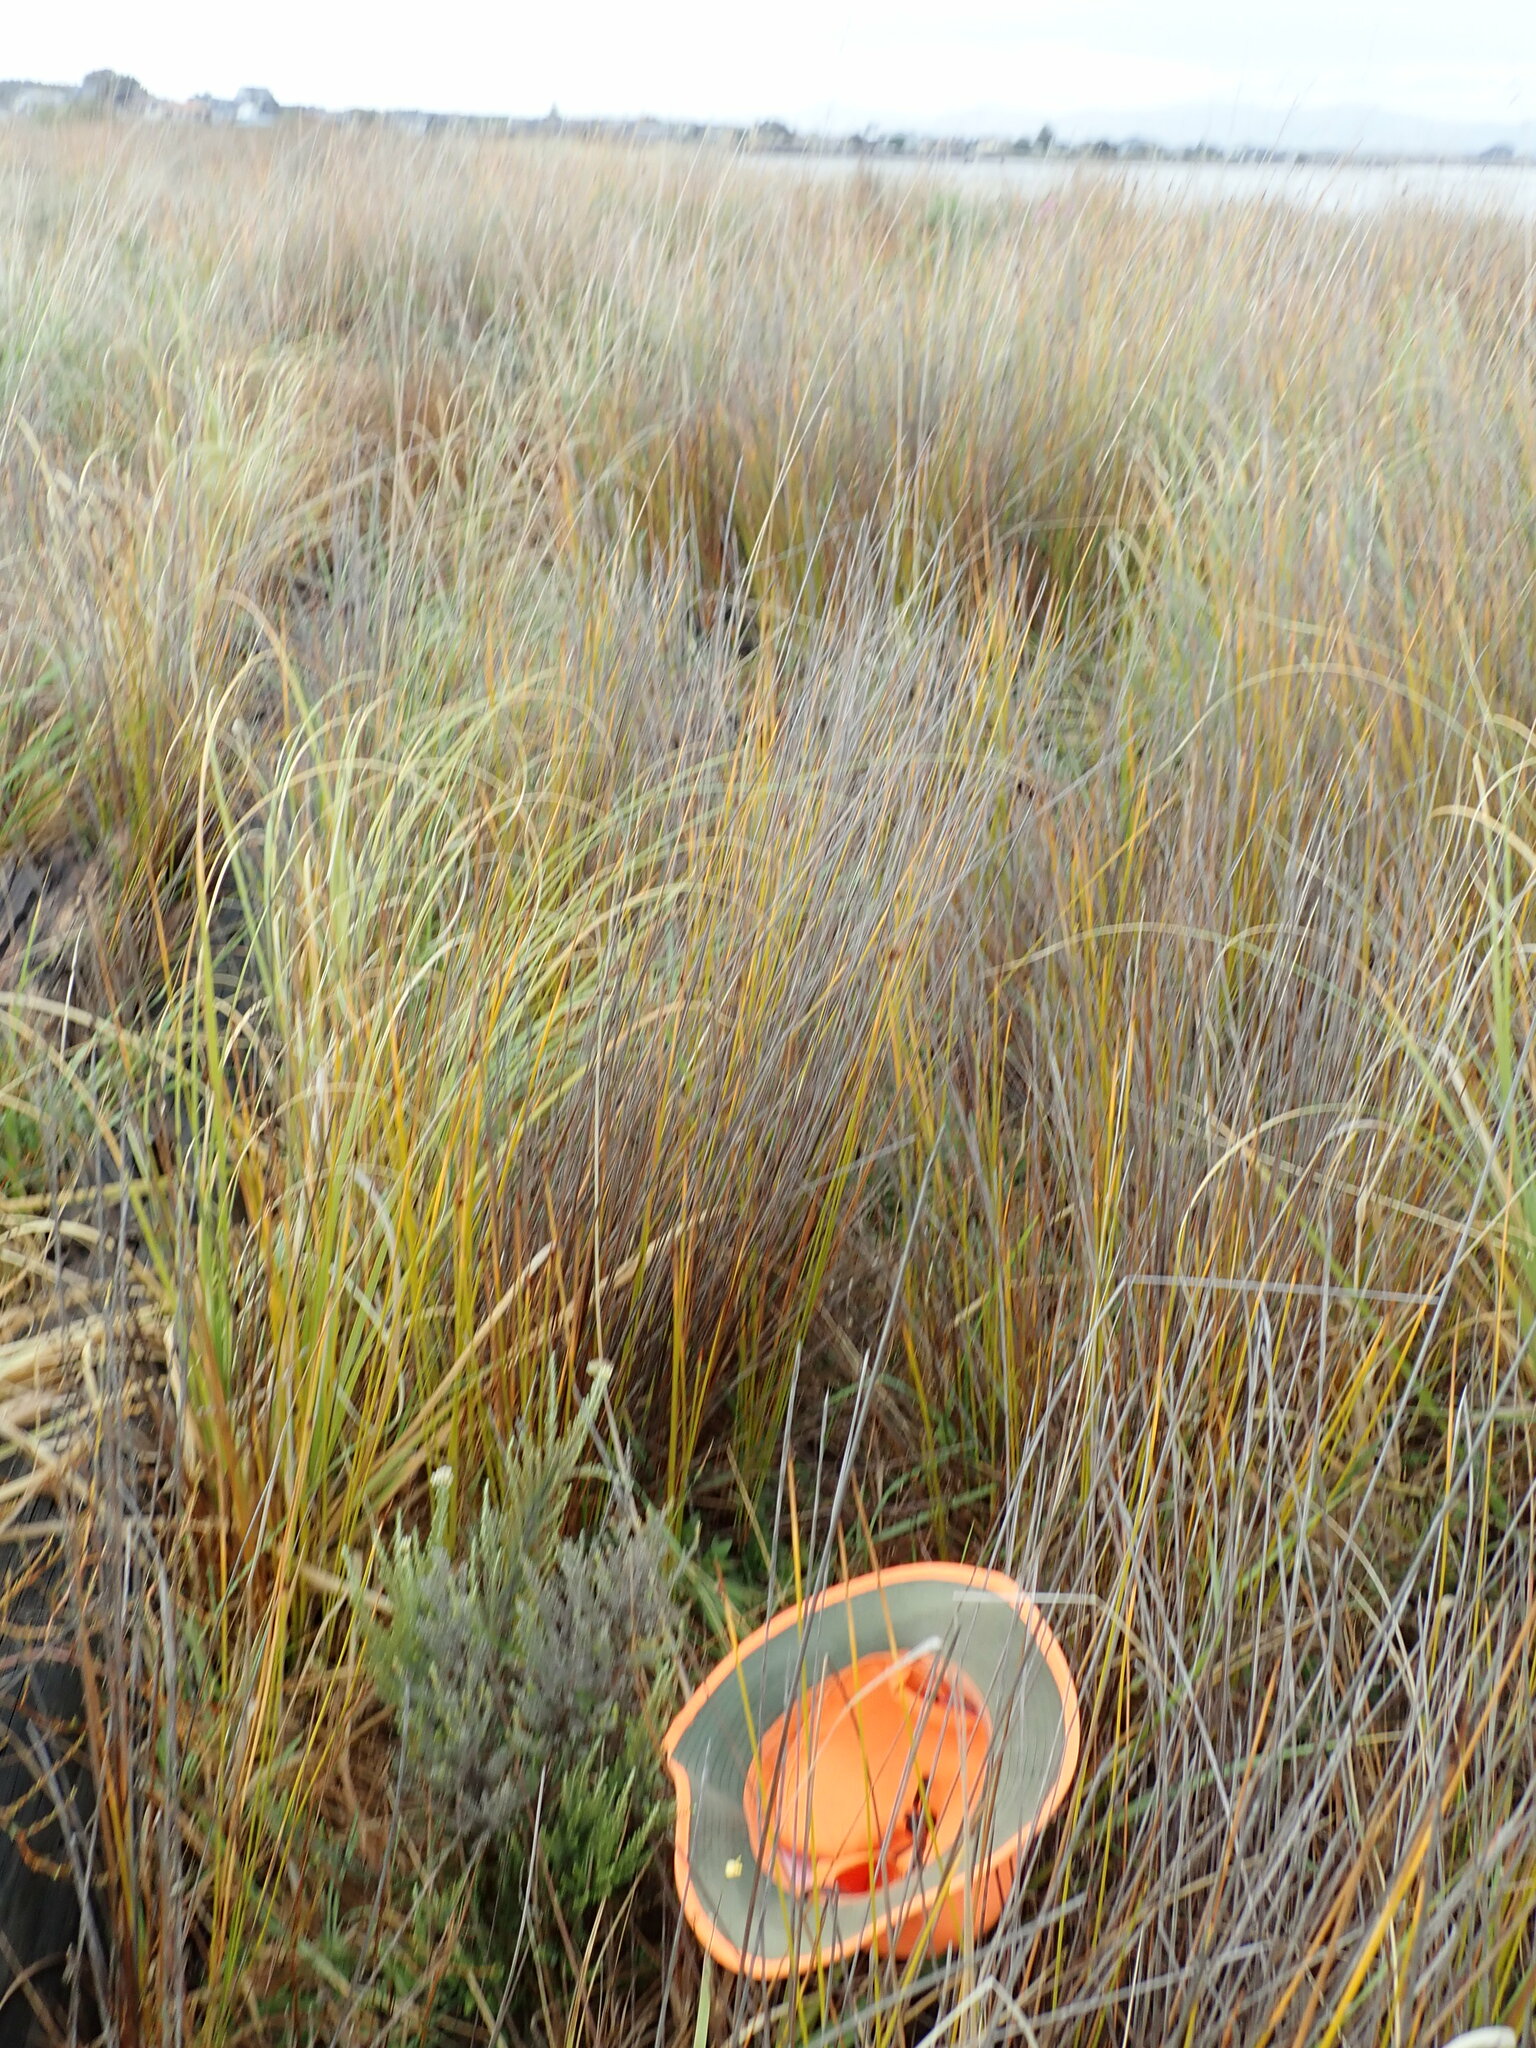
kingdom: Plantae
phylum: Tracheophyta
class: Magnoliopsida
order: Asterales
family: Asteraceae
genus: Ozothamnus
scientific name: Ozothamnus leptophyllus
